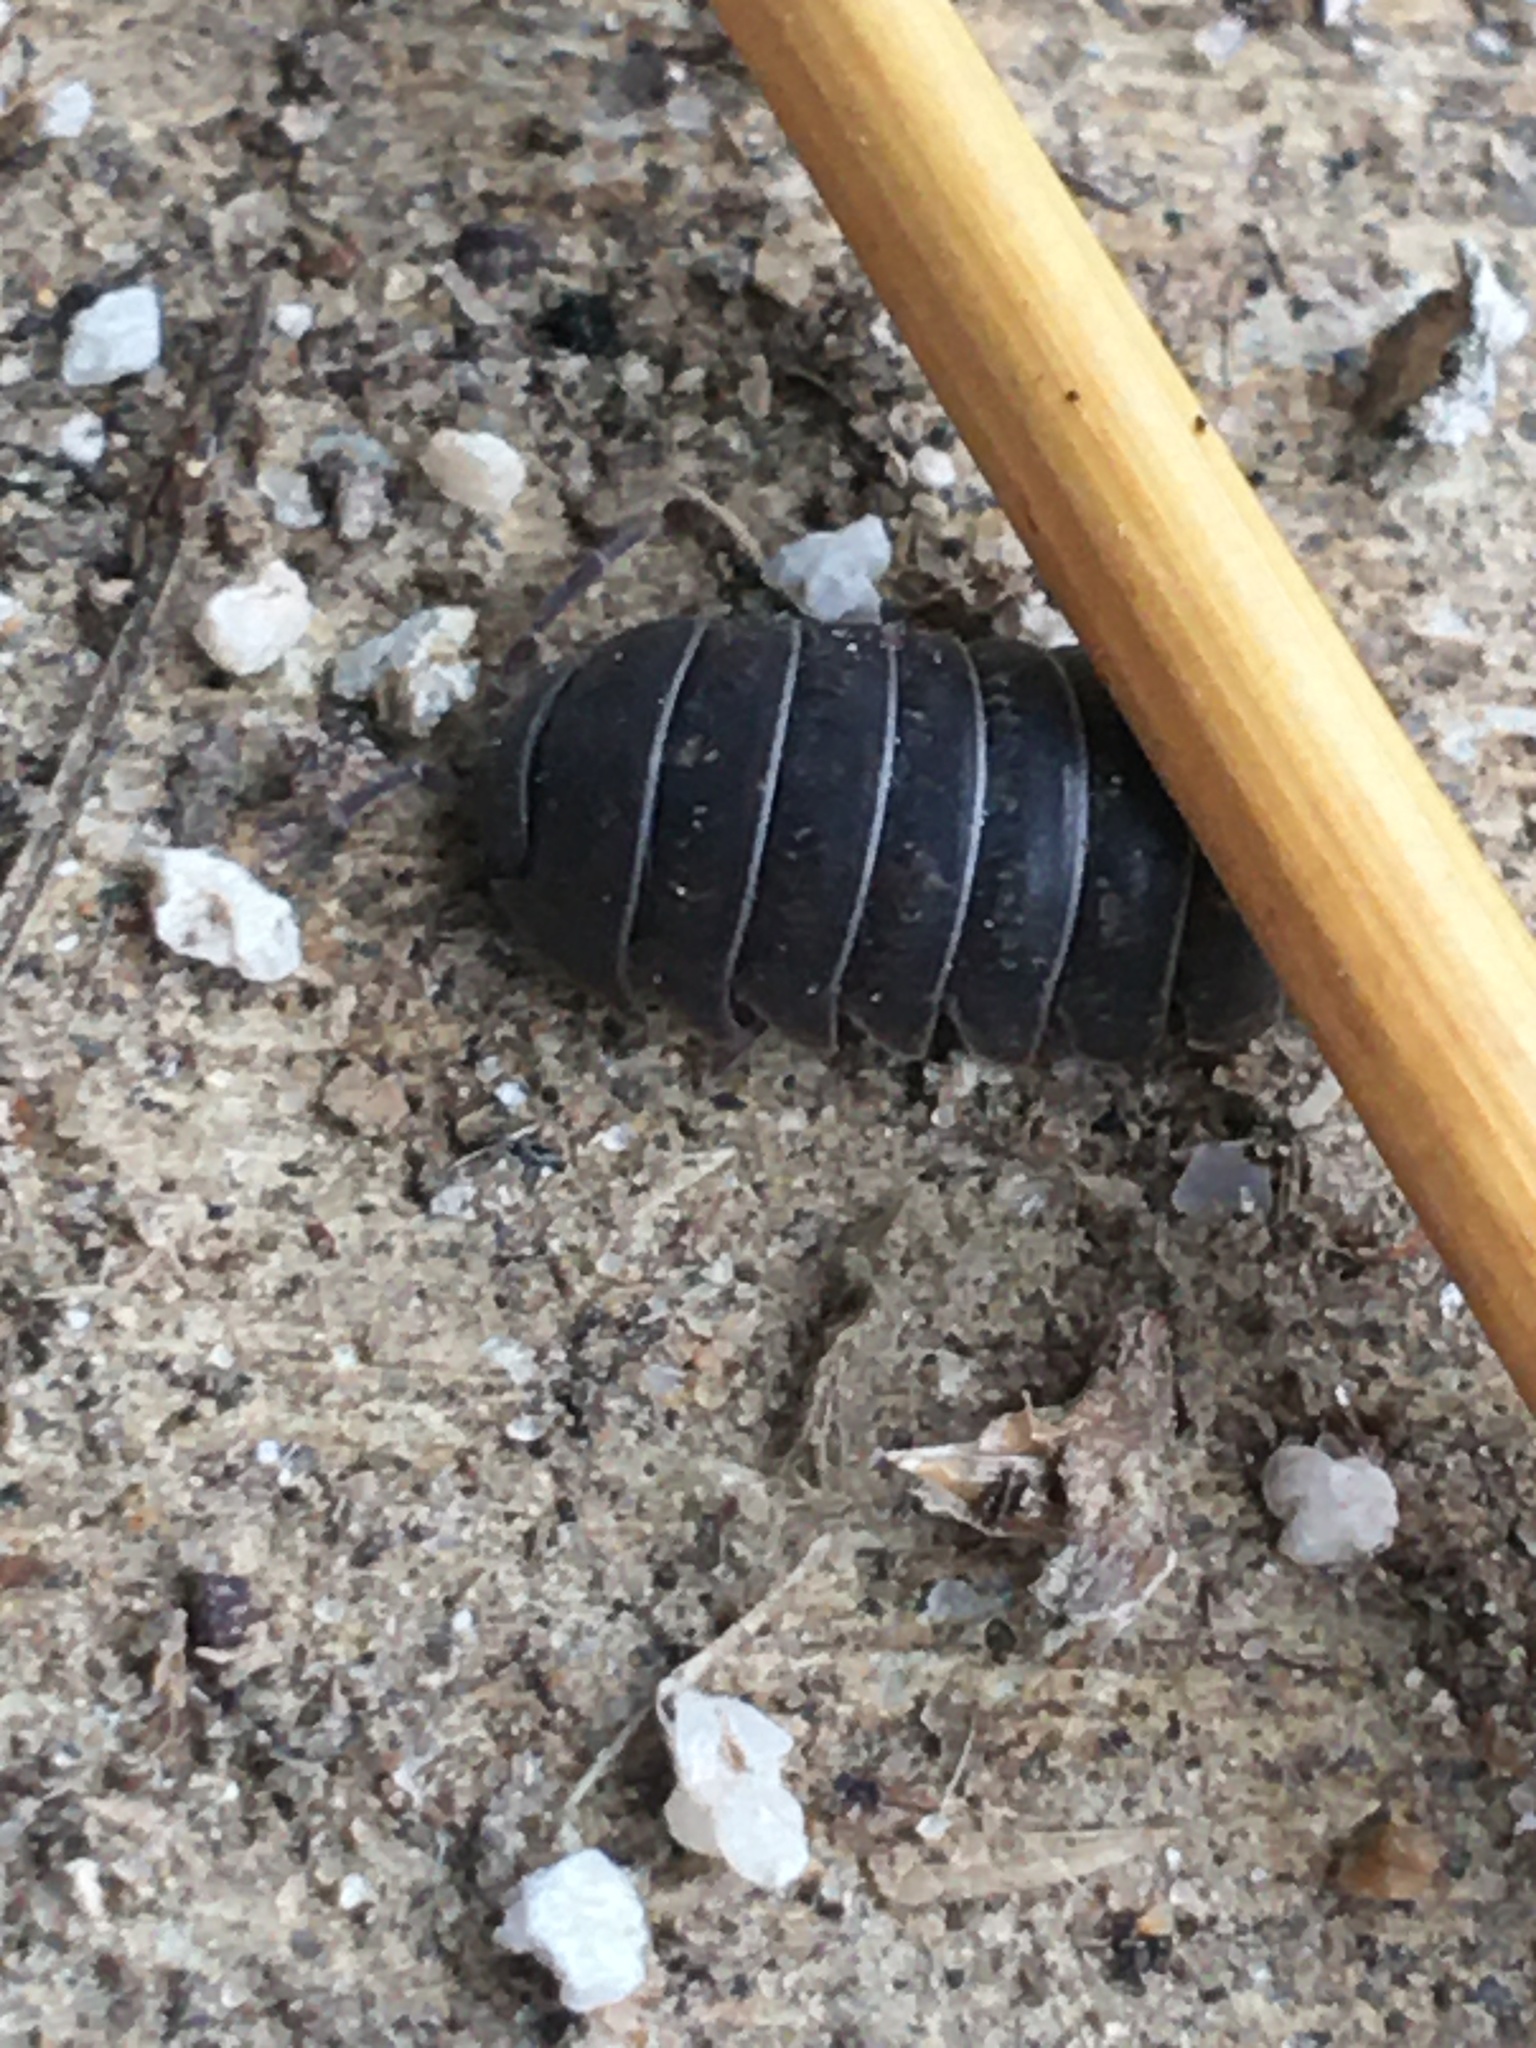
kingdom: Animalia
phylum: Arthropoda
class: Malacostraca
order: Isopoda
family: Armadillidiidae
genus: Armadillidium
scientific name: Armadillidium vulgare
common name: Common pill woodlouse
